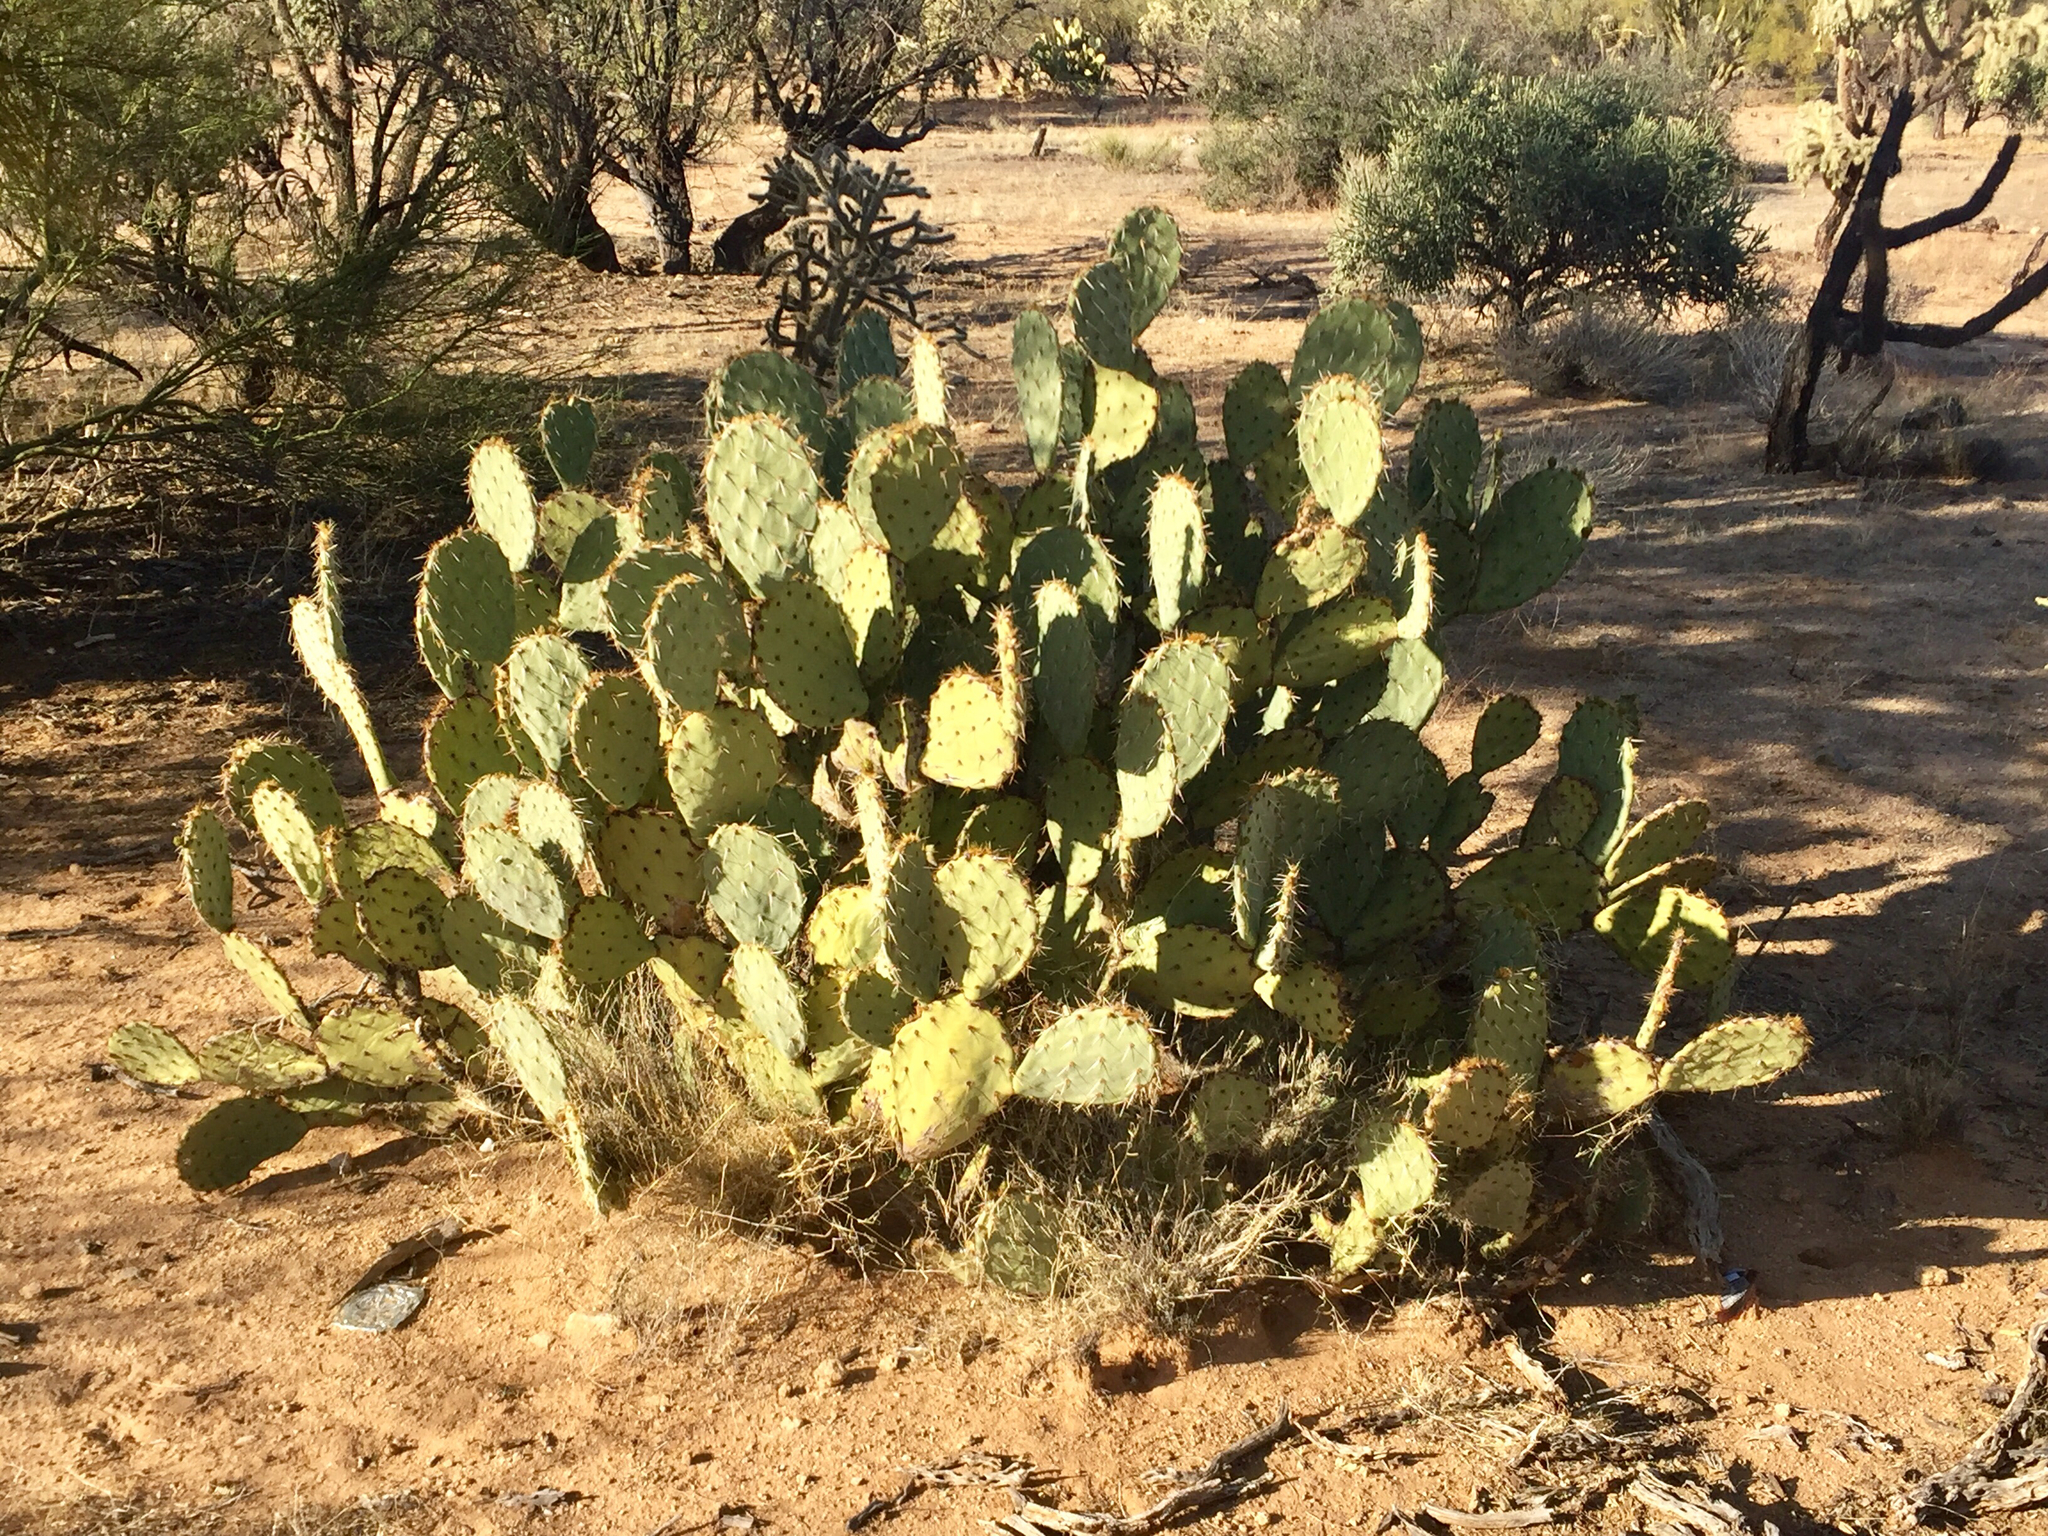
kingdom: Plantae
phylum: Tracheophyta
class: Magnoliopsida
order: Caryophyllales
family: Cactaceae
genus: Opuntia
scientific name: Opuntia engelmannii
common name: Cactus-apple
